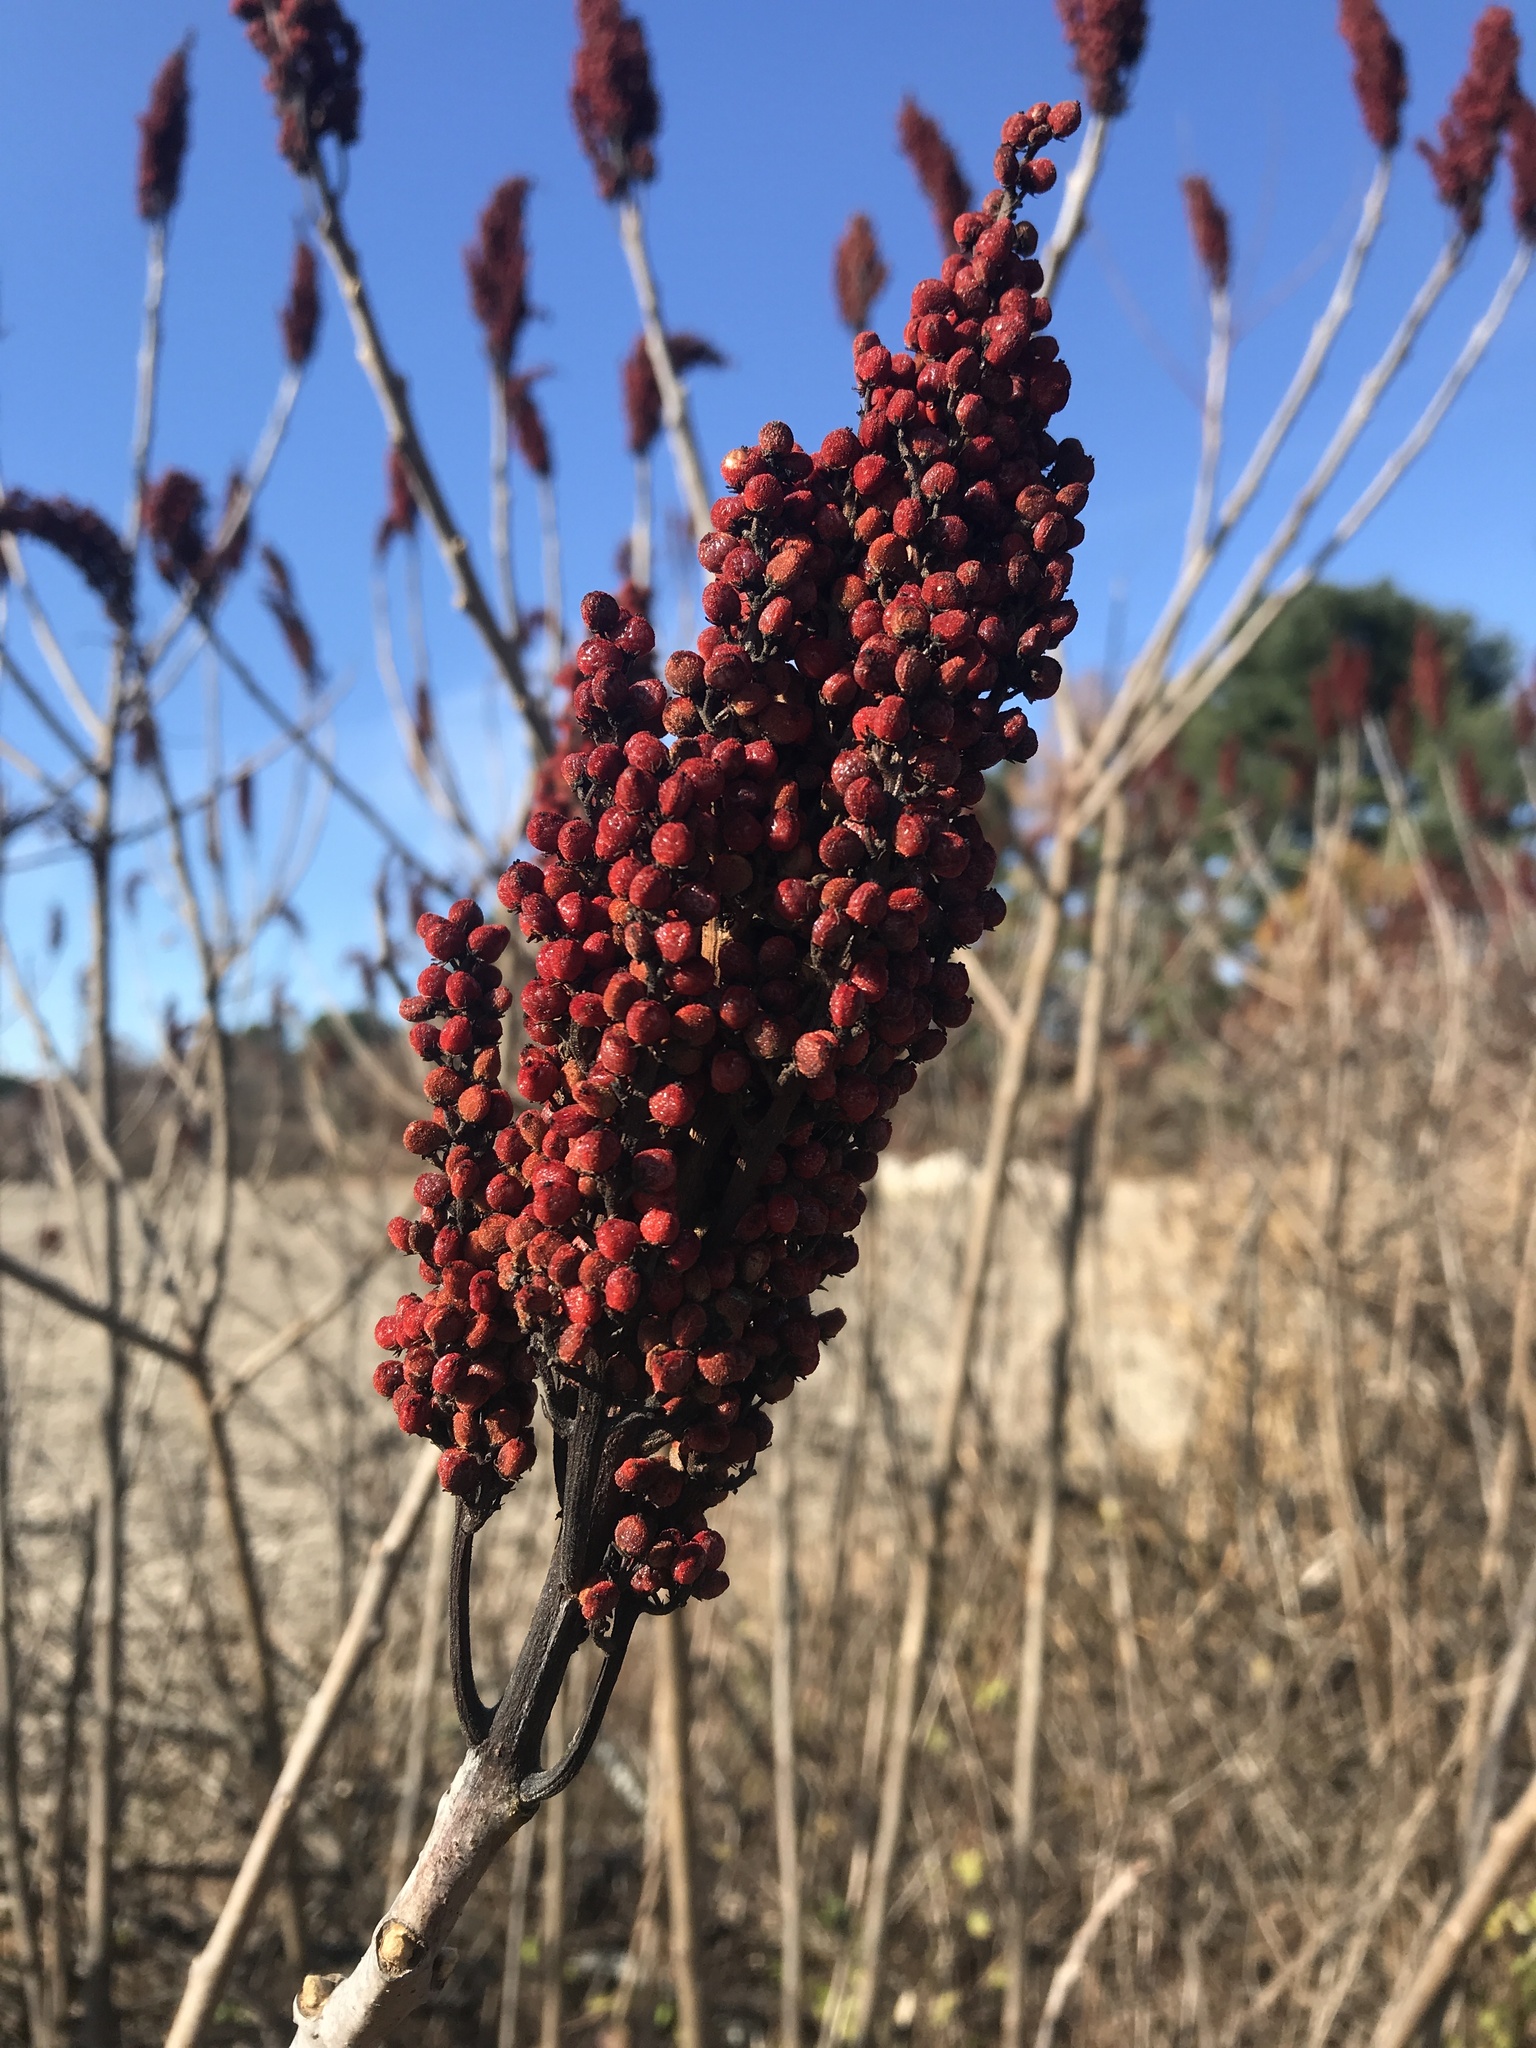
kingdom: Plantae
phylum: Tracheophyta
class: Magnoliopsida
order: Sapindales
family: Anacardiaceae
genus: Rhus
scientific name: Rhus glabra
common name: Scarlet sumac
